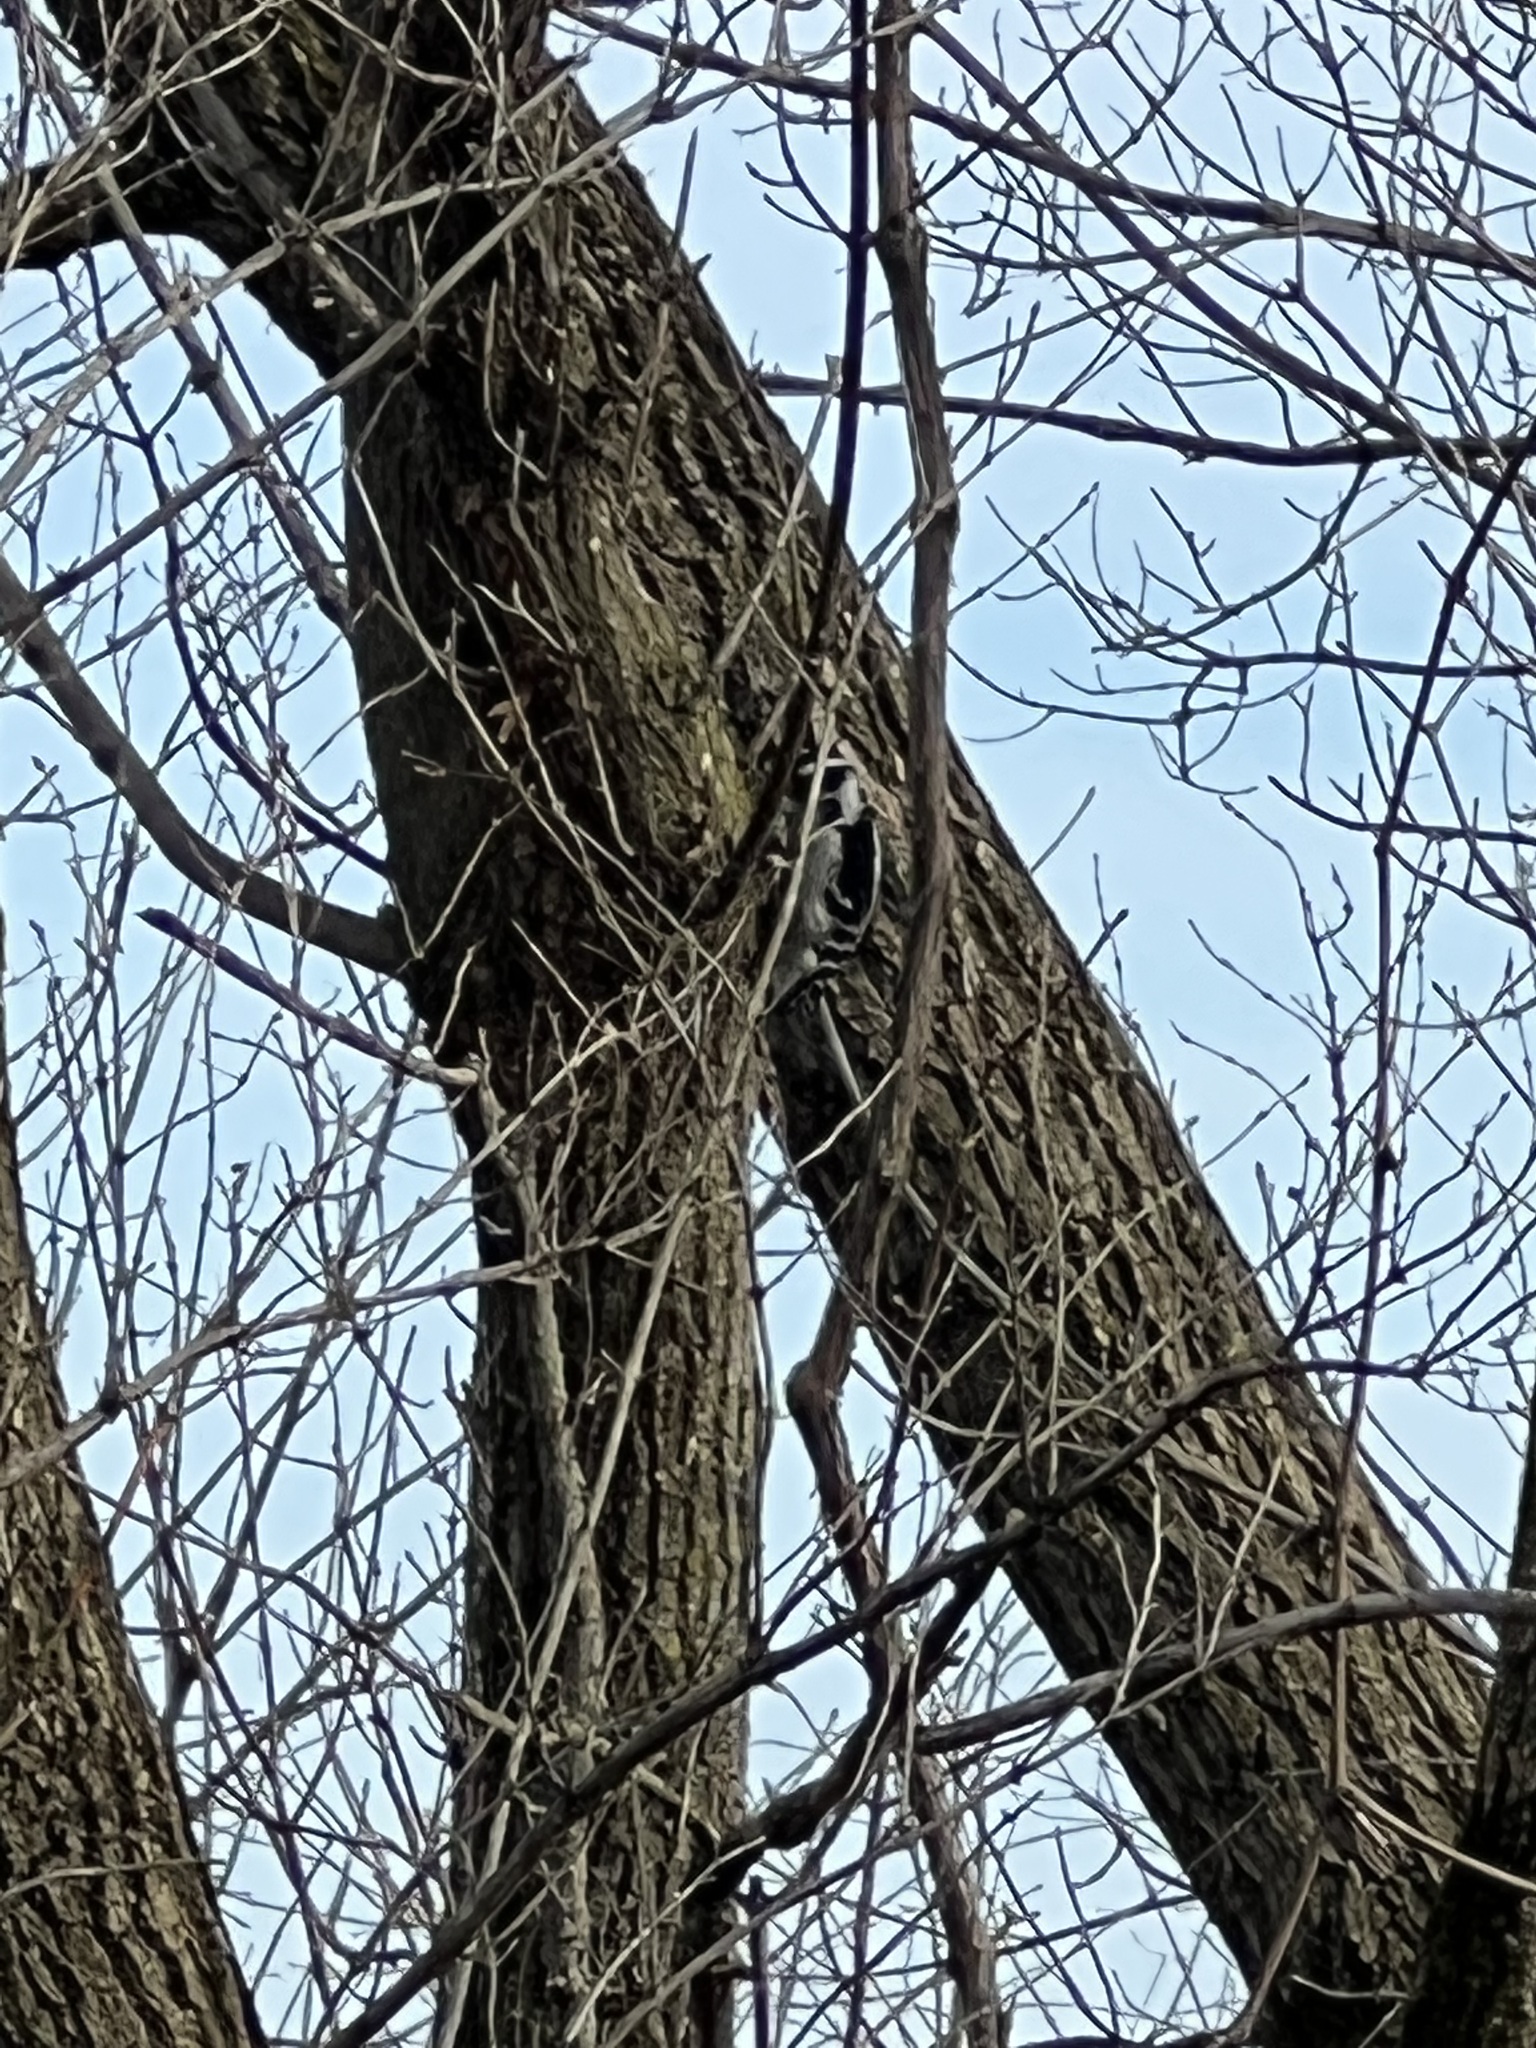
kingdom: Animalia
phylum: Chordata
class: Aves
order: Piciformes
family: Picidae
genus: Dryobates
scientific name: Dryobates pubescens
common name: Downy woodpecker
